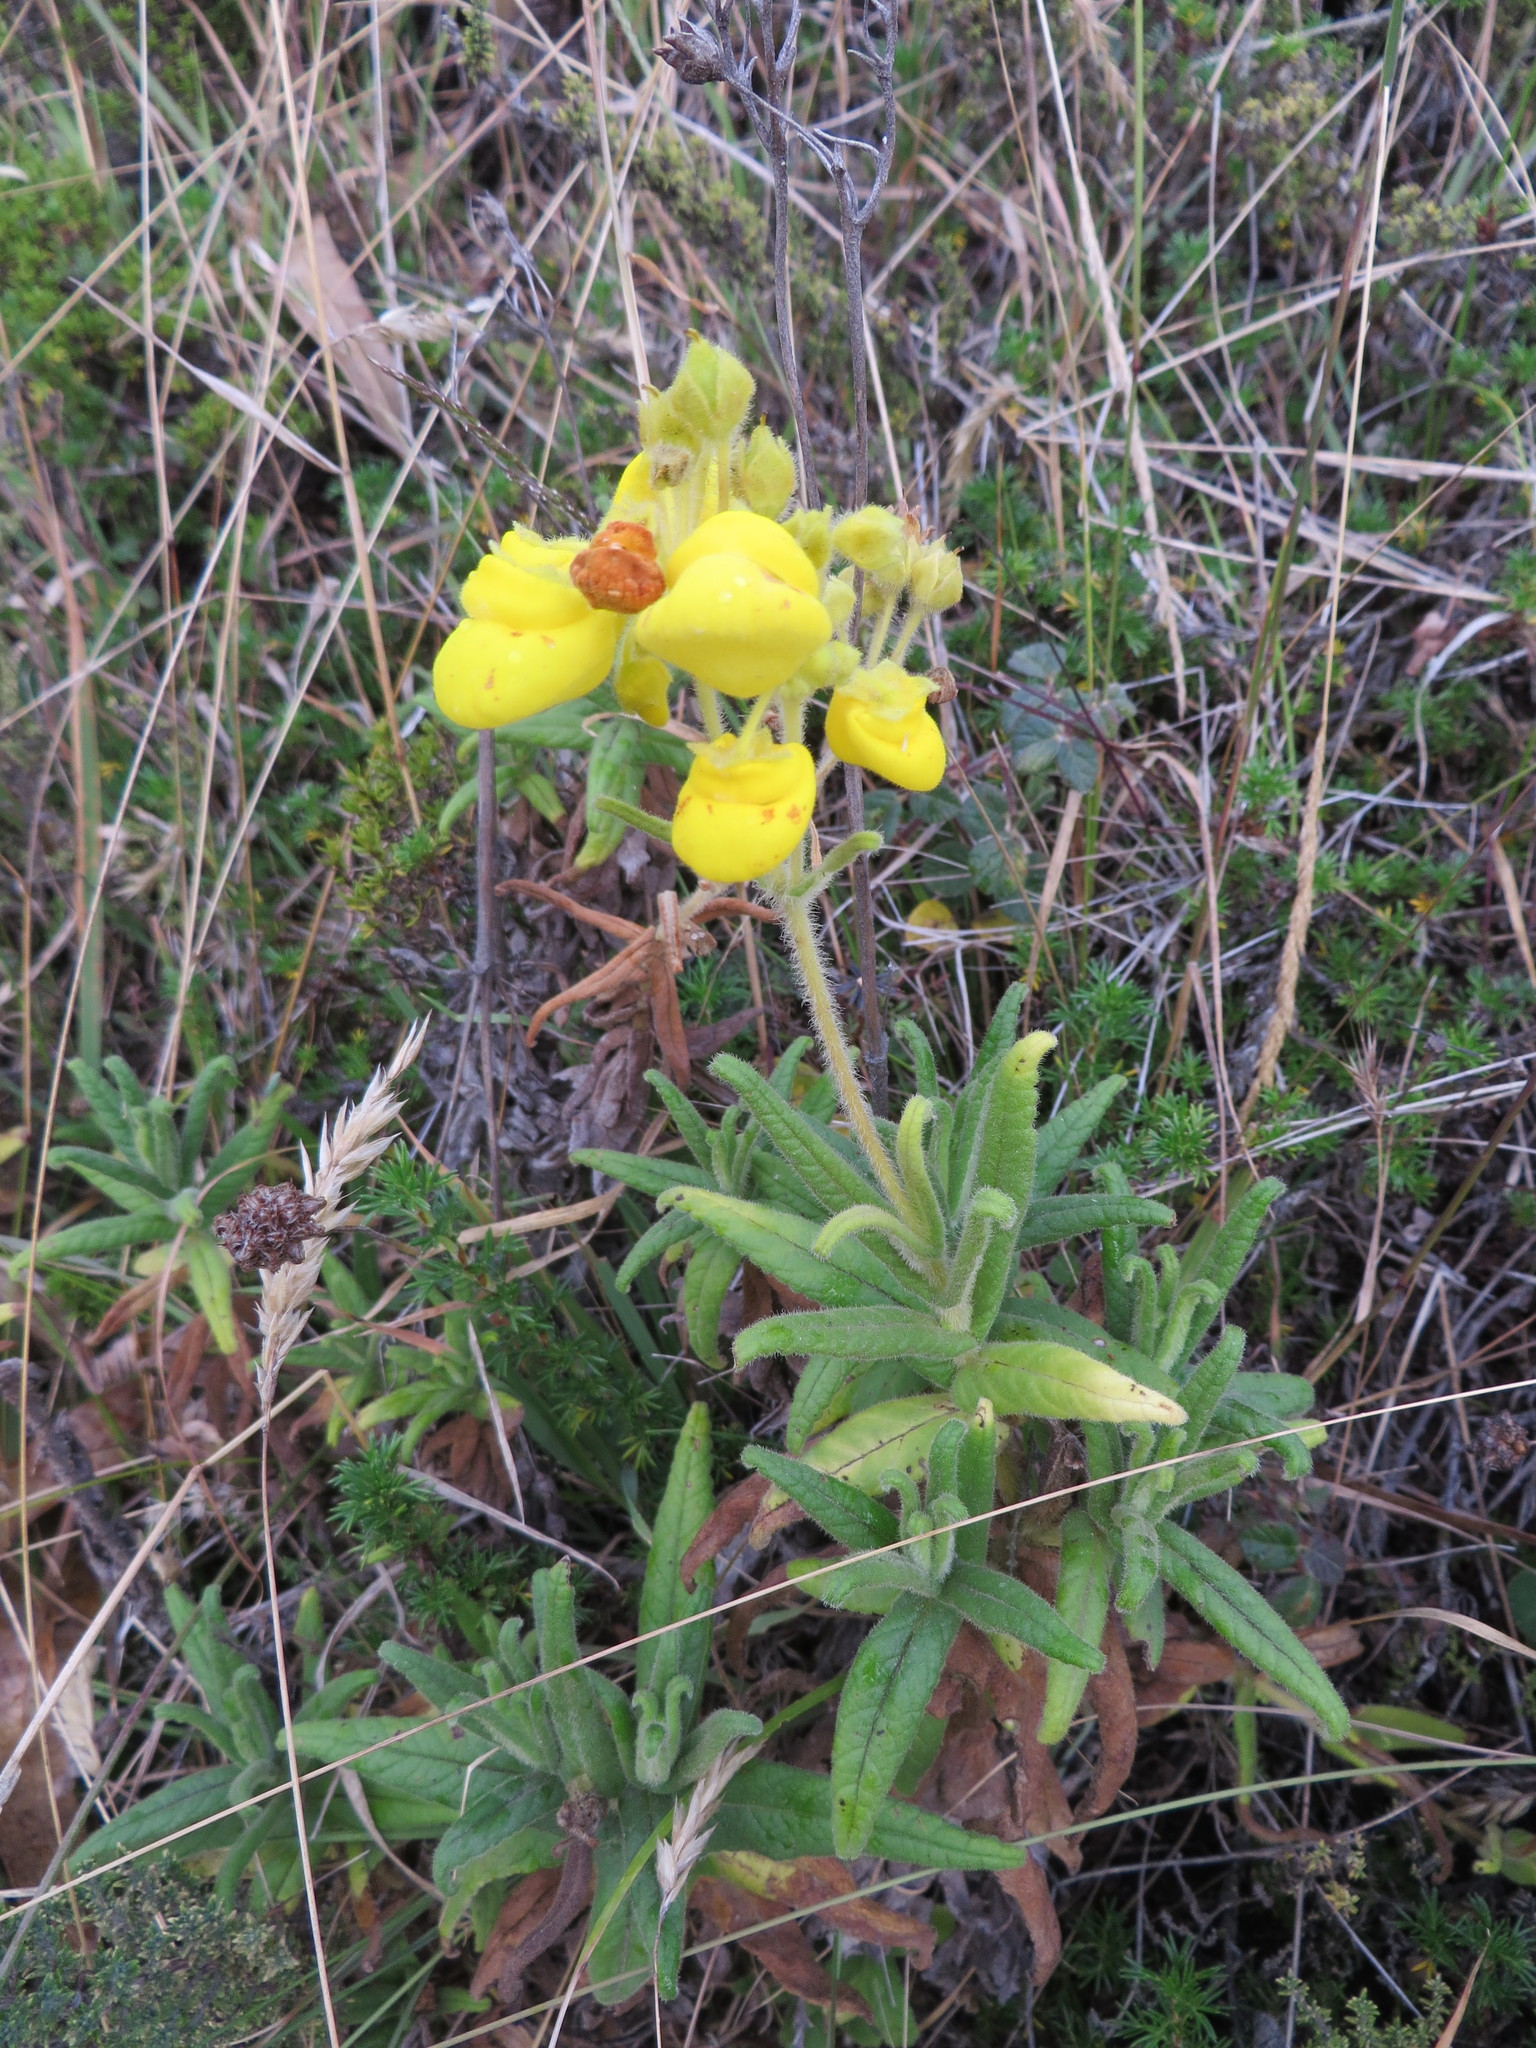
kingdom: Plantae
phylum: Tracheophyta
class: Magnoliopsida
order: Lamiales
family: Calceolariaceae
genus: Calceolaria
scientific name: Calceolaria crenata
